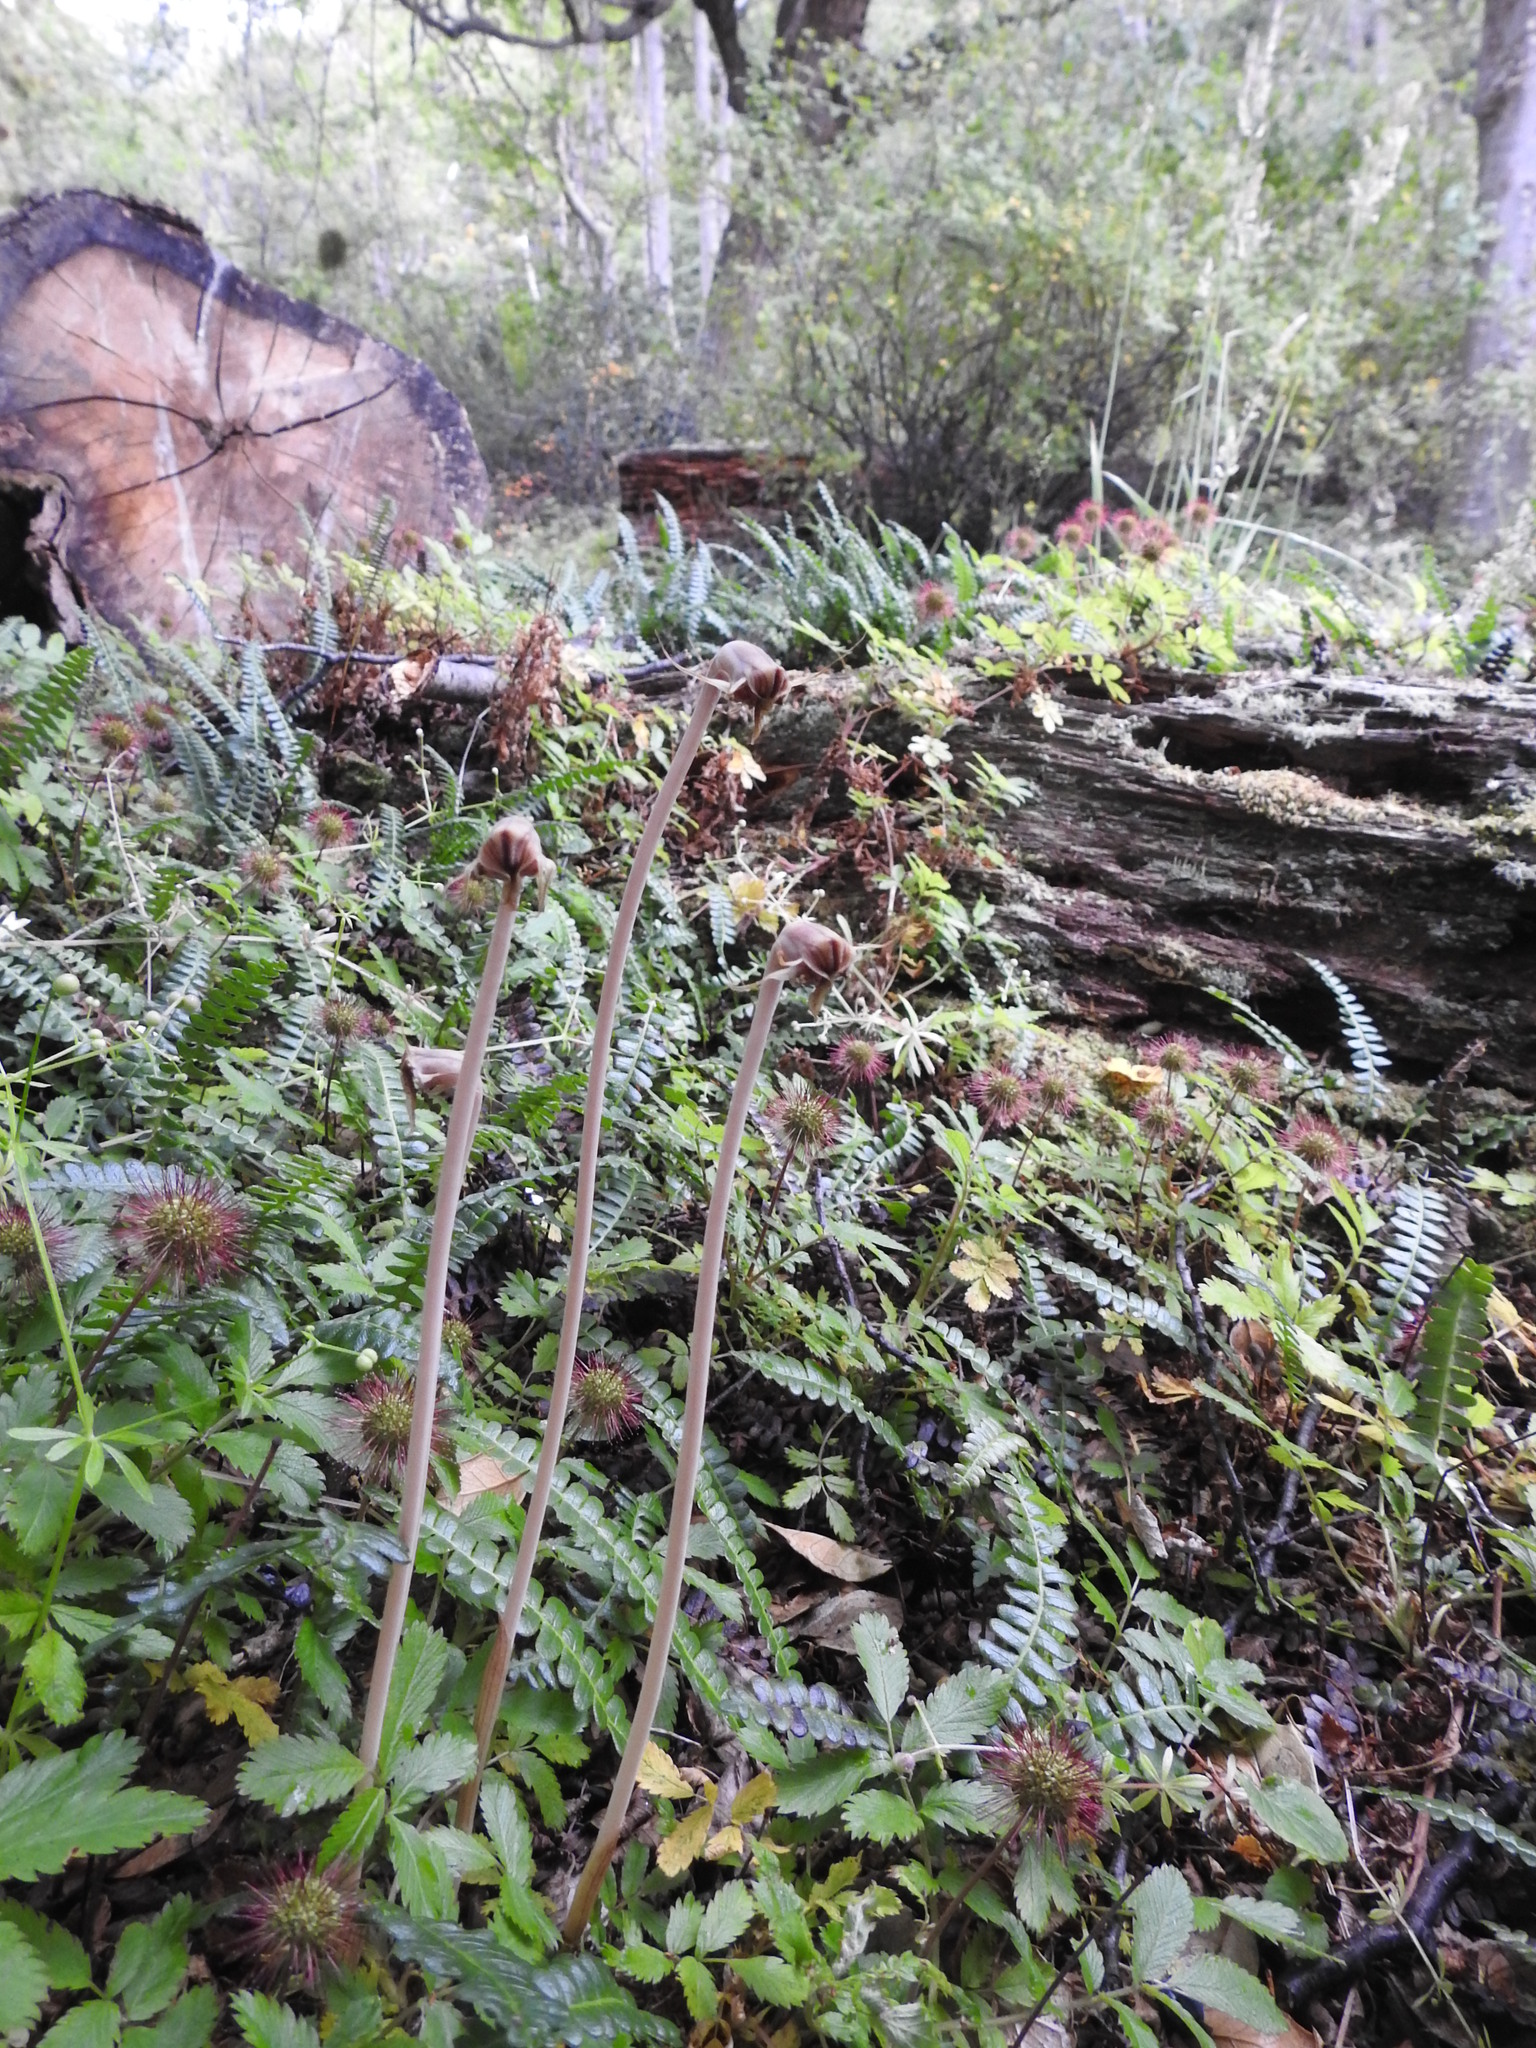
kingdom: Plantae
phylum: Tracheophyta
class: Liliopsida
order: Liliales
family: Corsiaceae
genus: Arachnitis
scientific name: Arachnitis uniflora
